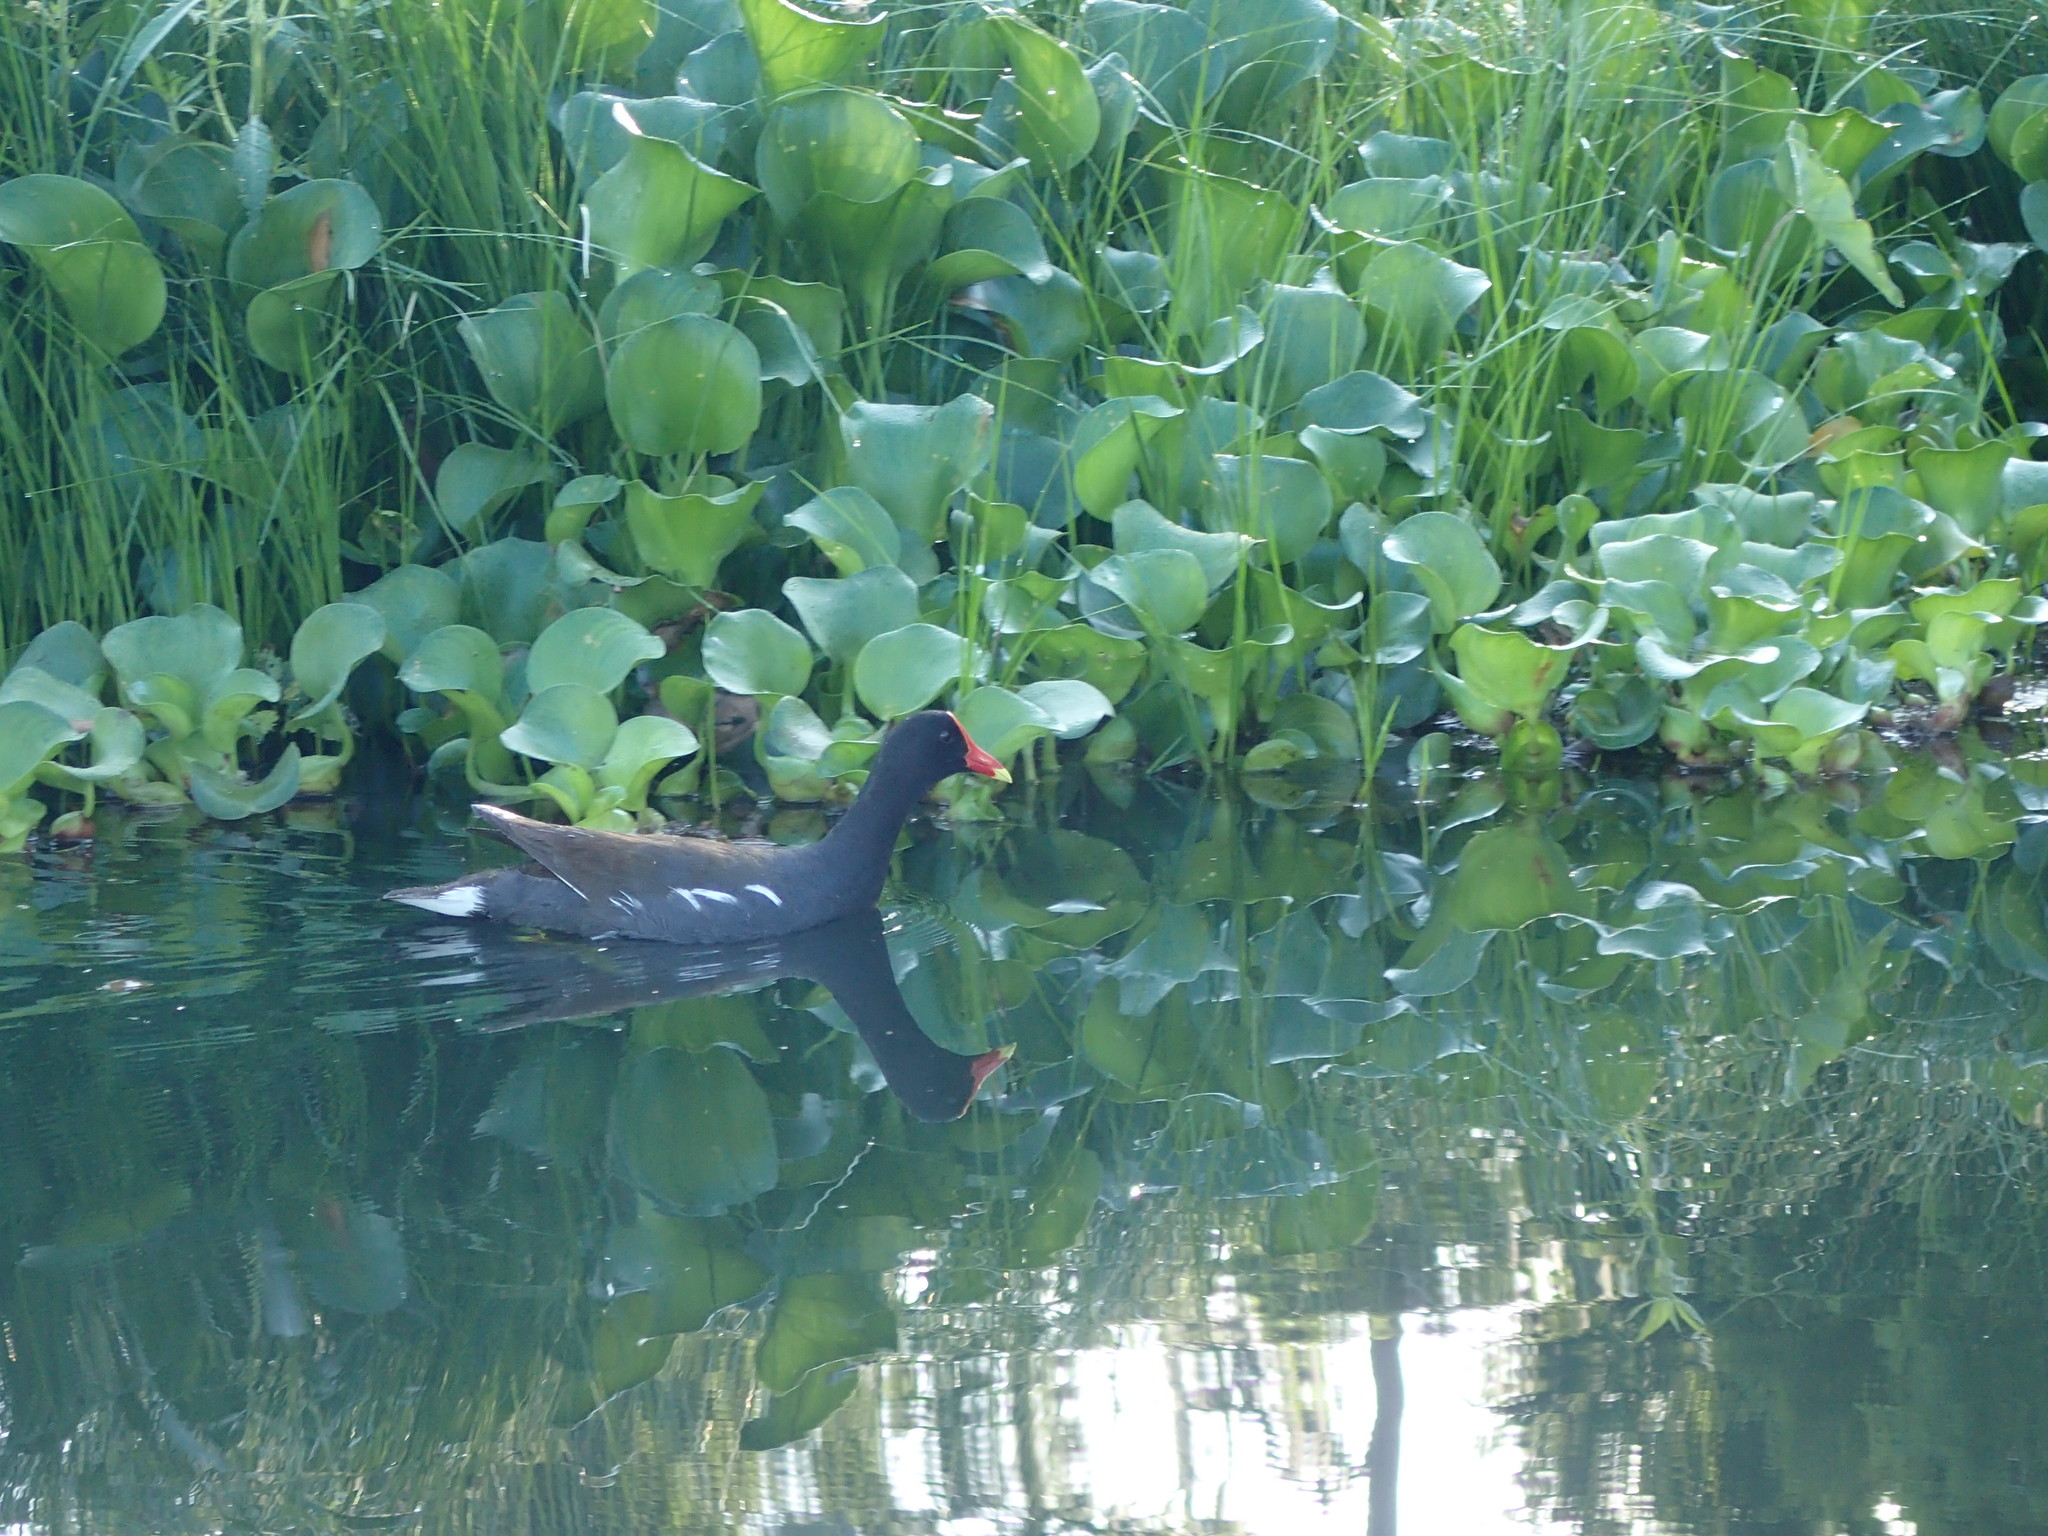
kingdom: Animalia
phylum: Chordata
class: Aves
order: Gruiformes
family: Rallidae
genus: Gallinula
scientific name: Gallinula chloropus
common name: Common moorhen
